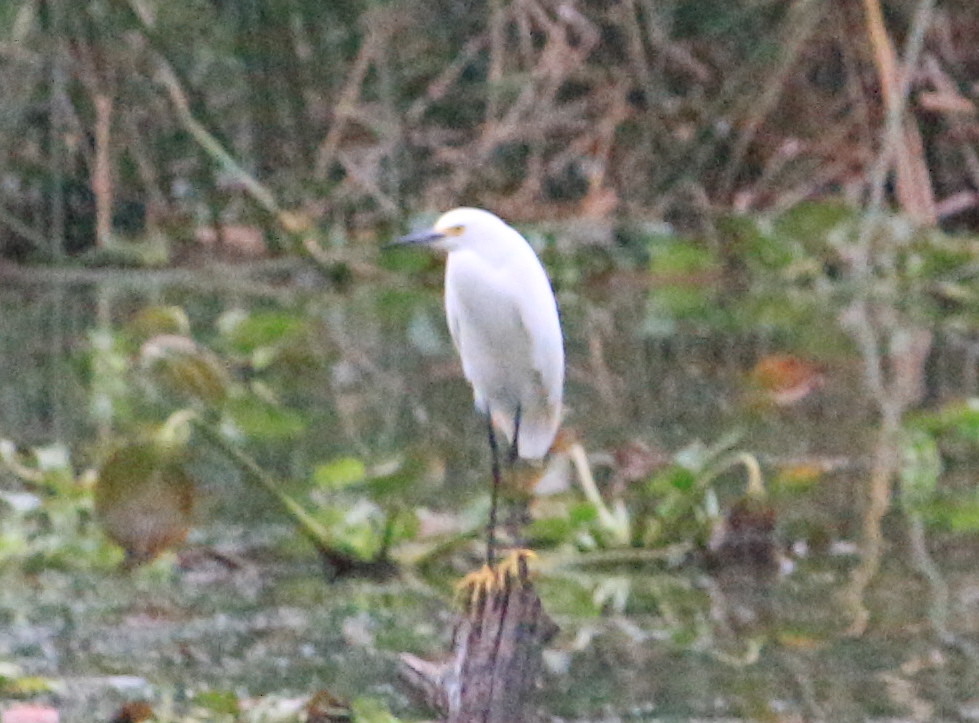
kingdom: Animalia
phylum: Chordata
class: Aves
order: Pelecaniformes
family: Ardeidae
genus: Egretta
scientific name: Egretta thula
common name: Snowy egret
